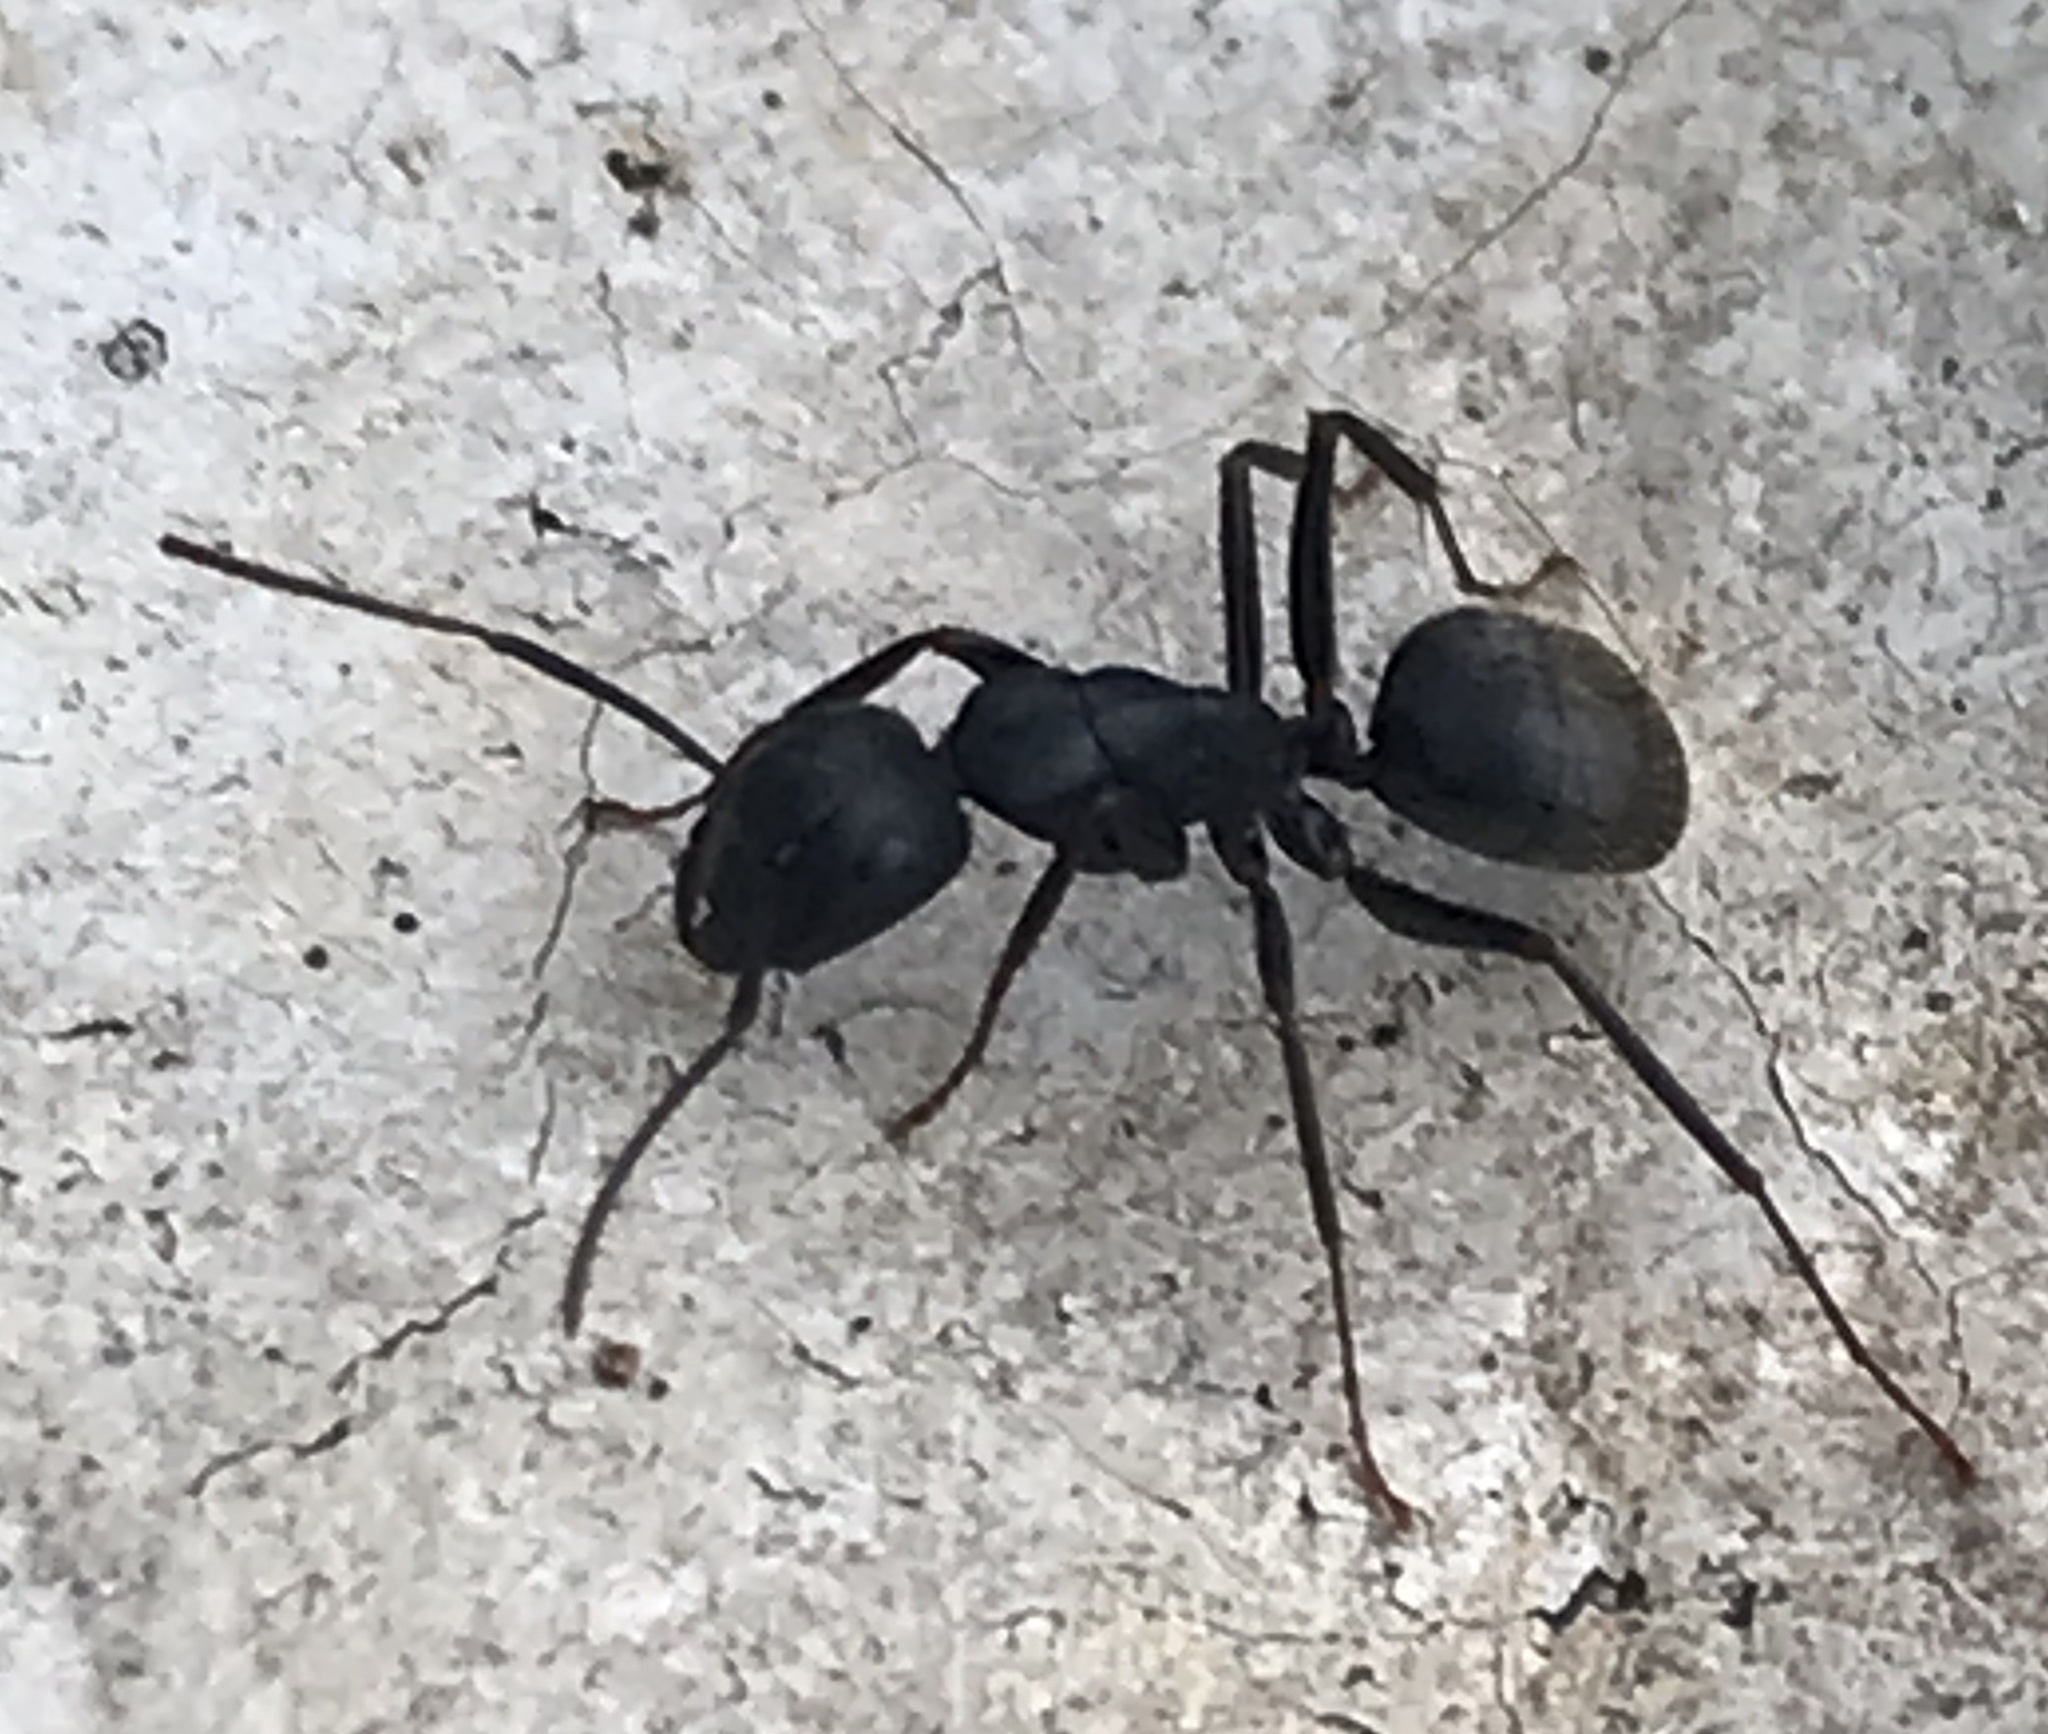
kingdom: Animalia
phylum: Arthropoda
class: Insecta
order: Hymenoptera
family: Formicidae
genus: Camponotus
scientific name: Camponotus pennsylvanicus
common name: Black carpenter ant
